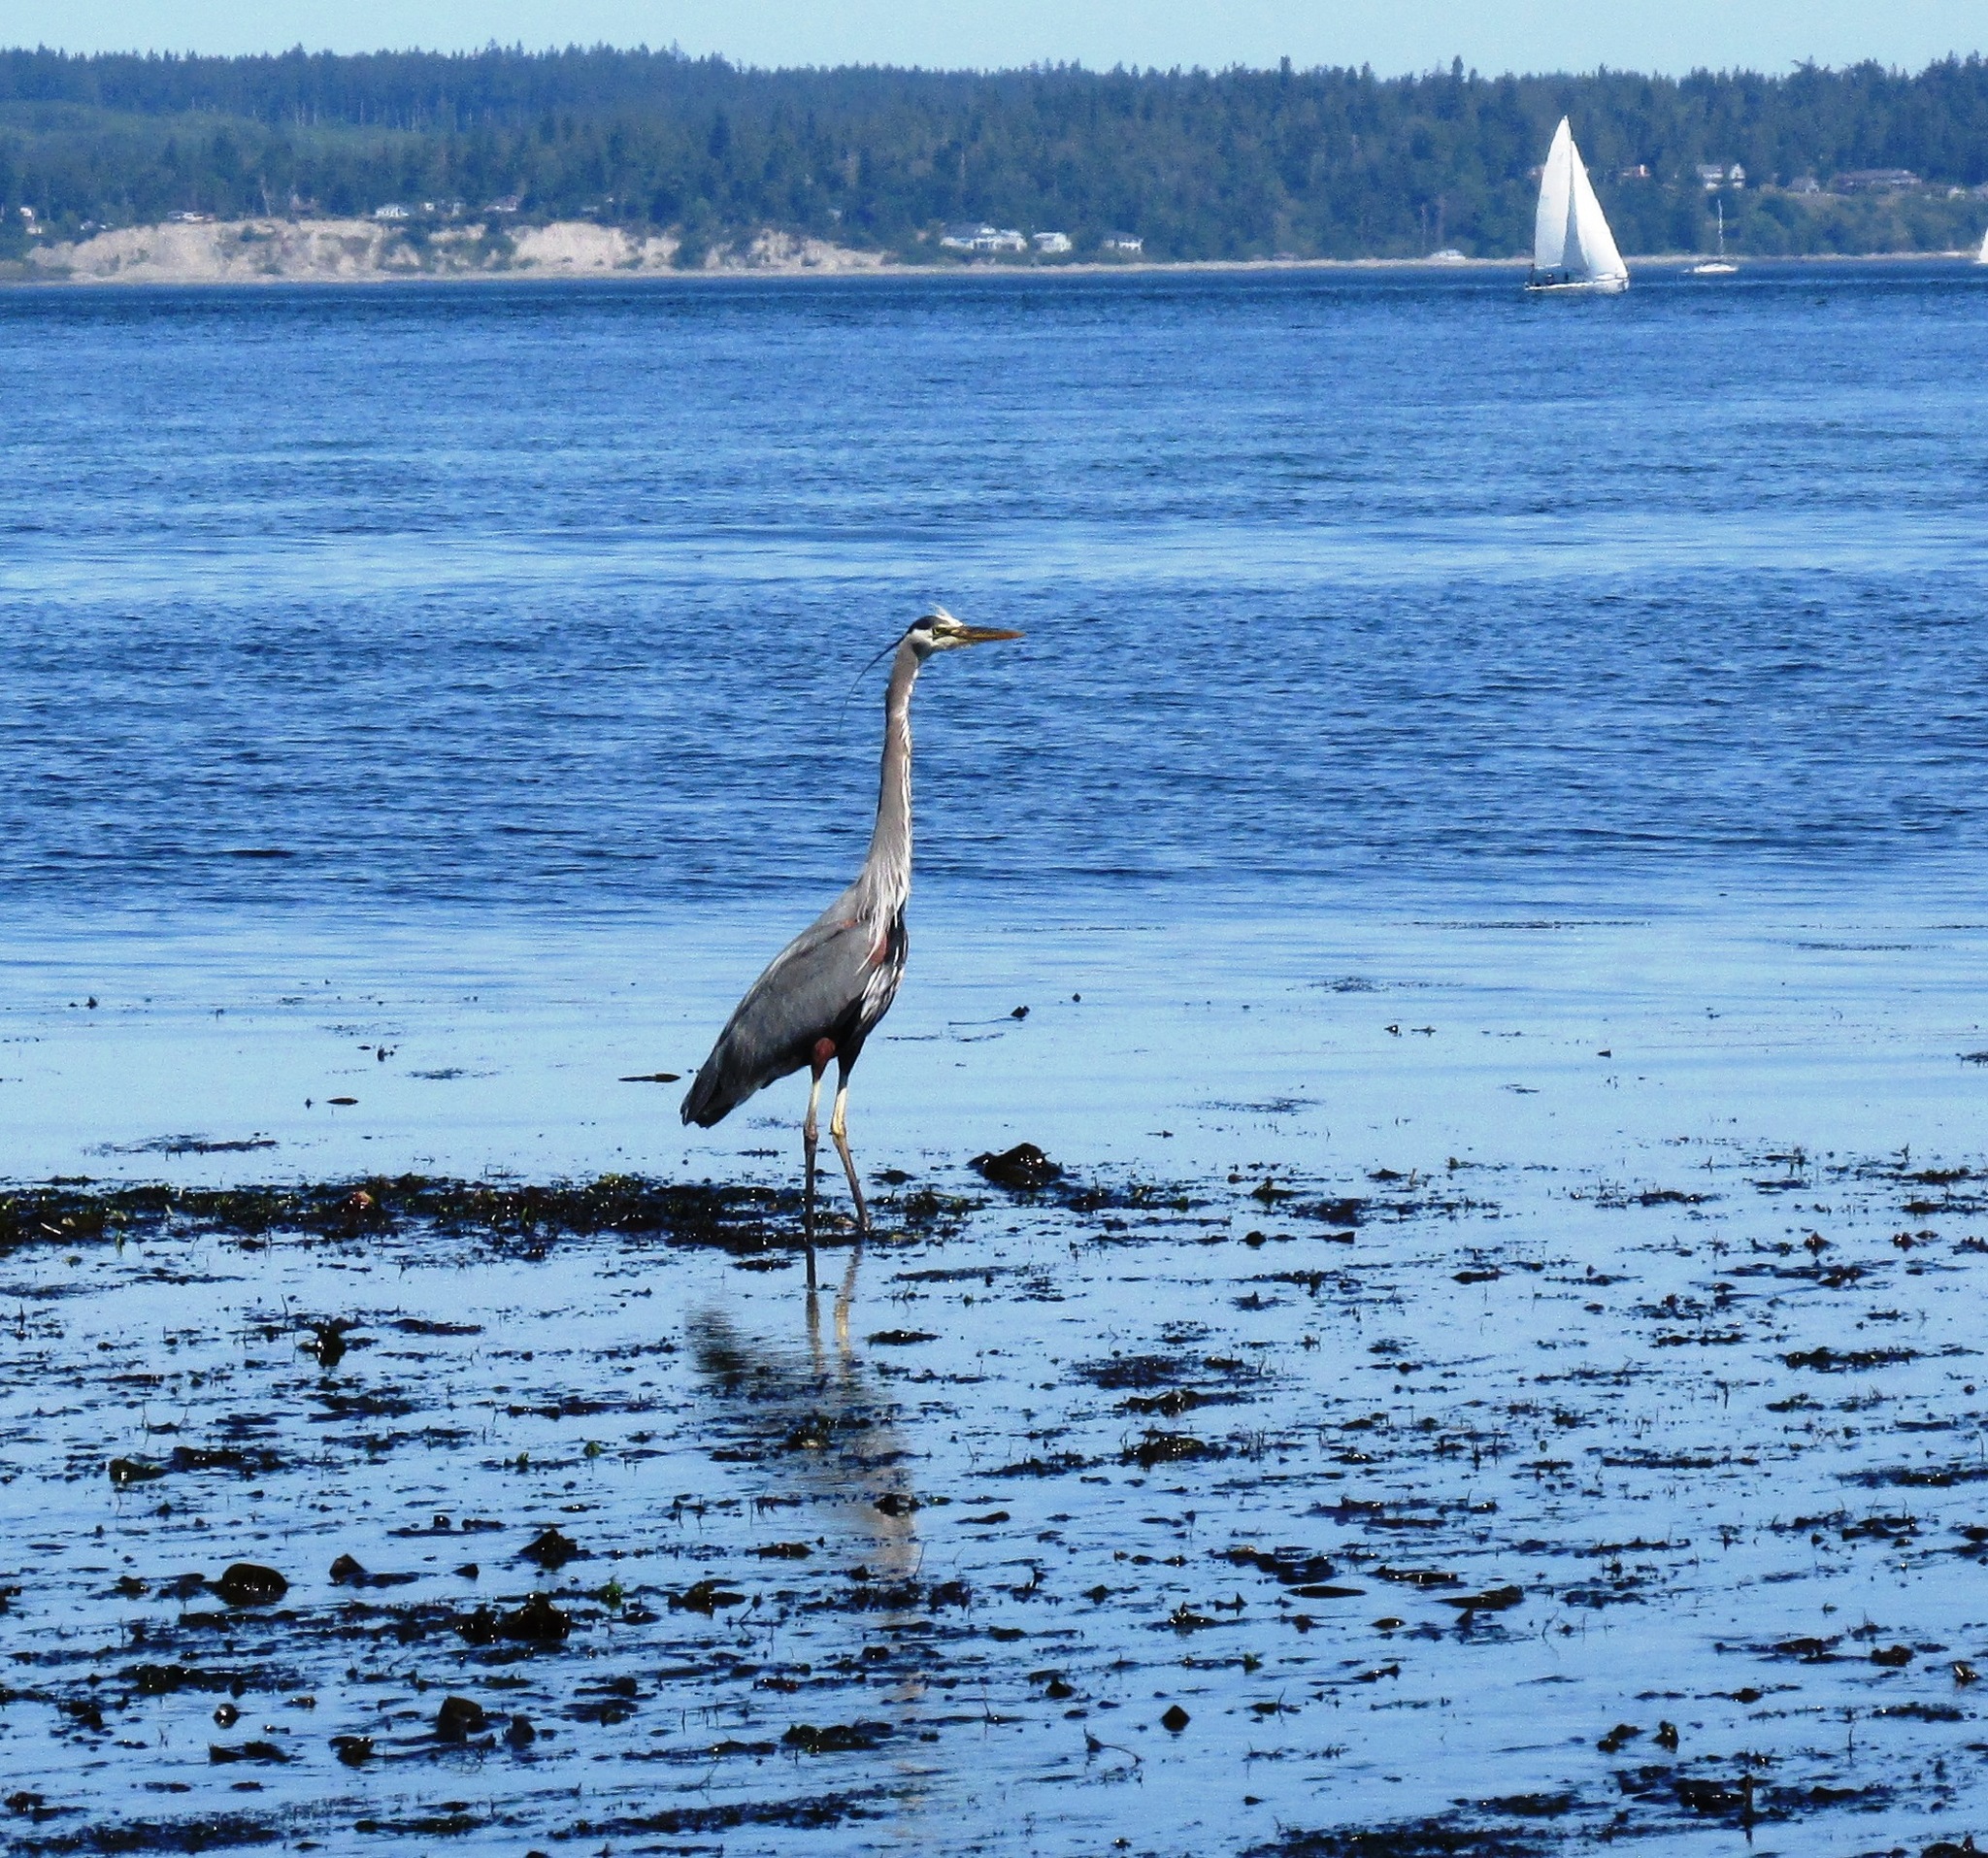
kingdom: Animalia
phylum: Chordata
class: Aves
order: Pelecaniformes
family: Ardeidae
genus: Ardea
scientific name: Ardea herodias
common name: Great blue heron
